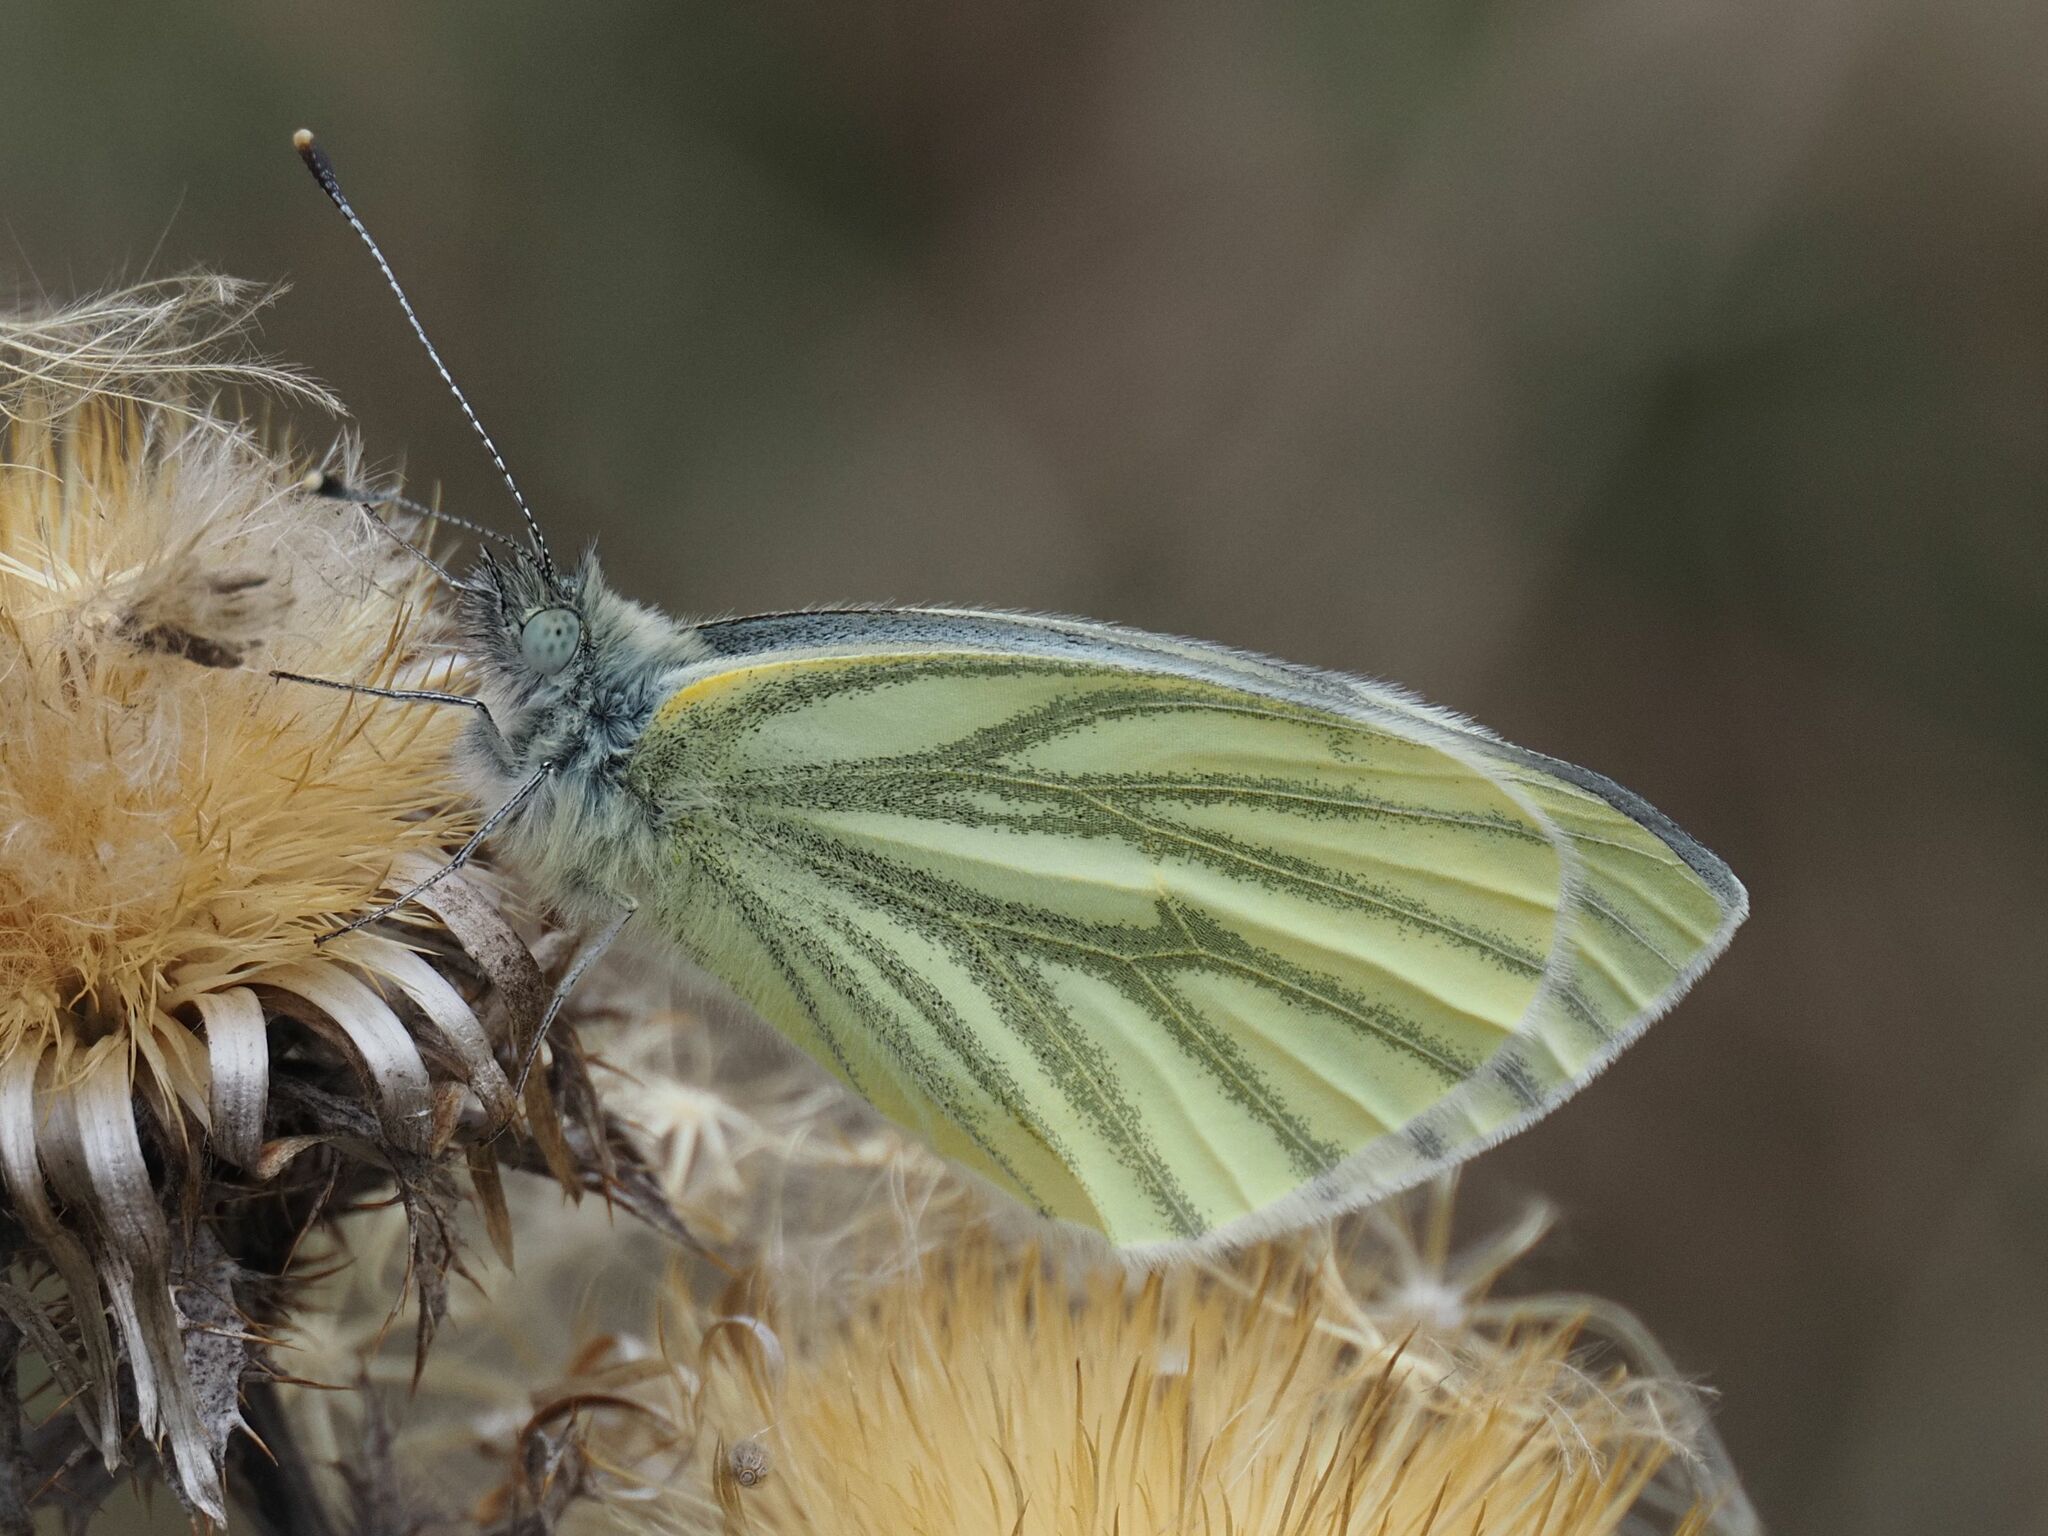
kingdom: Animalia
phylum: Arthropoda
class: Insecta
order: Lepidoptera
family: Pieridae
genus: Pieris
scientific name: Pieris napi
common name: Green-veined white
